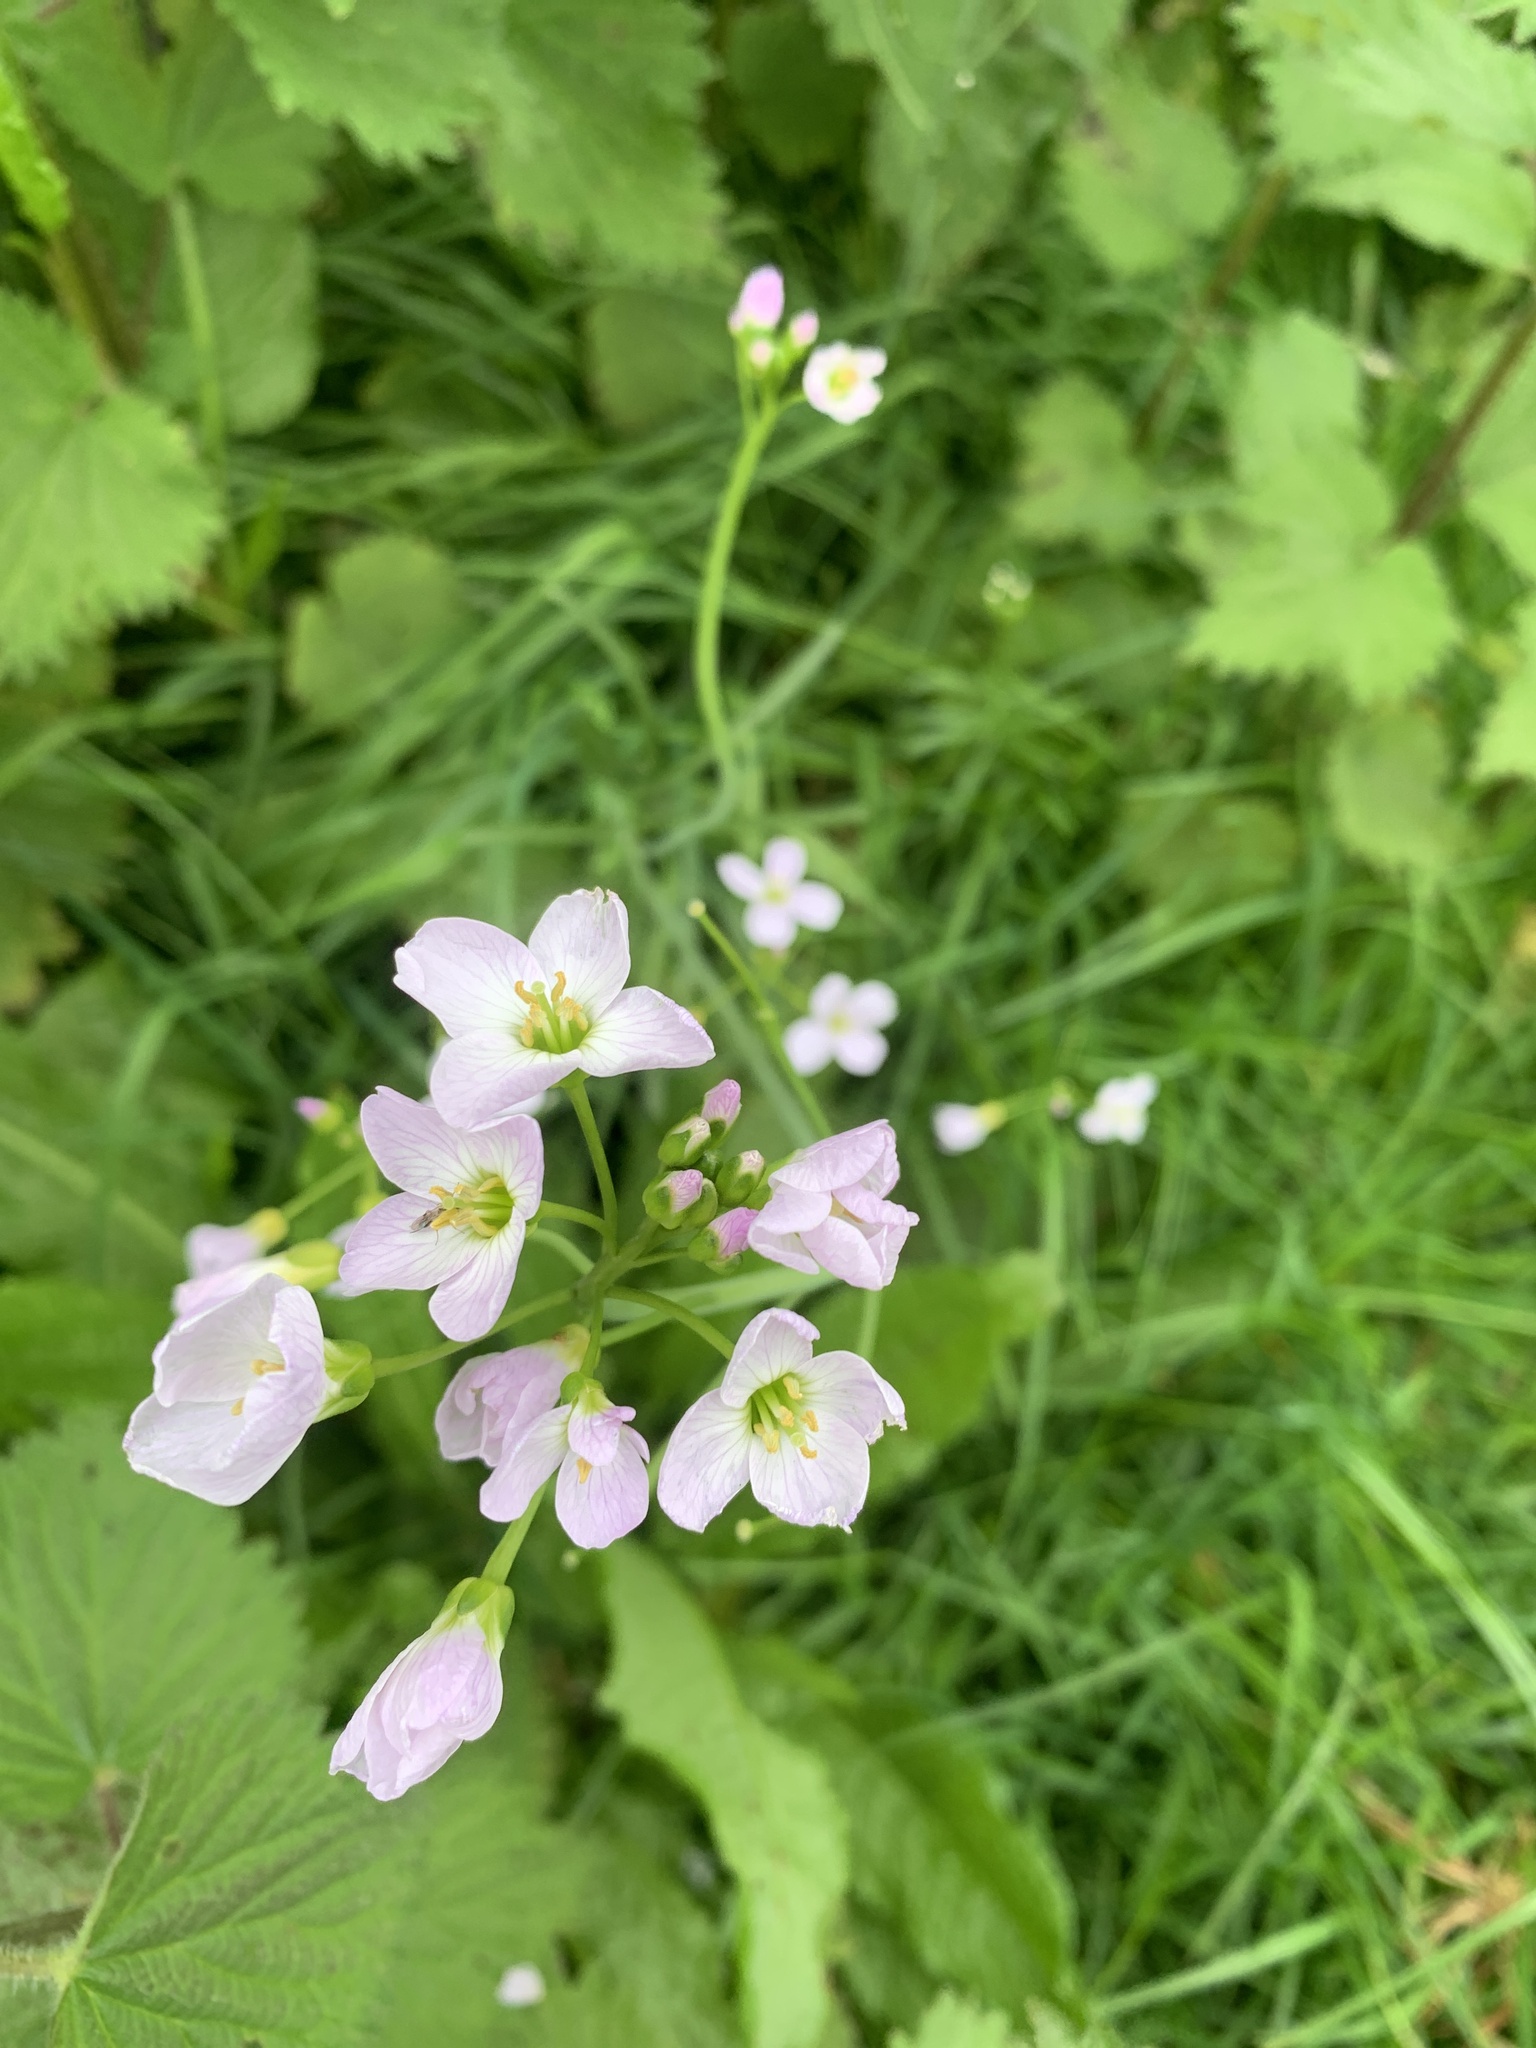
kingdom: Plantae
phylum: Tracheophyta
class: Magnoliopsida
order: Brassicales
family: Brassicaceae
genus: Cardamine
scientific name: Cardamine pratensis
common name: Cuckoo flower
